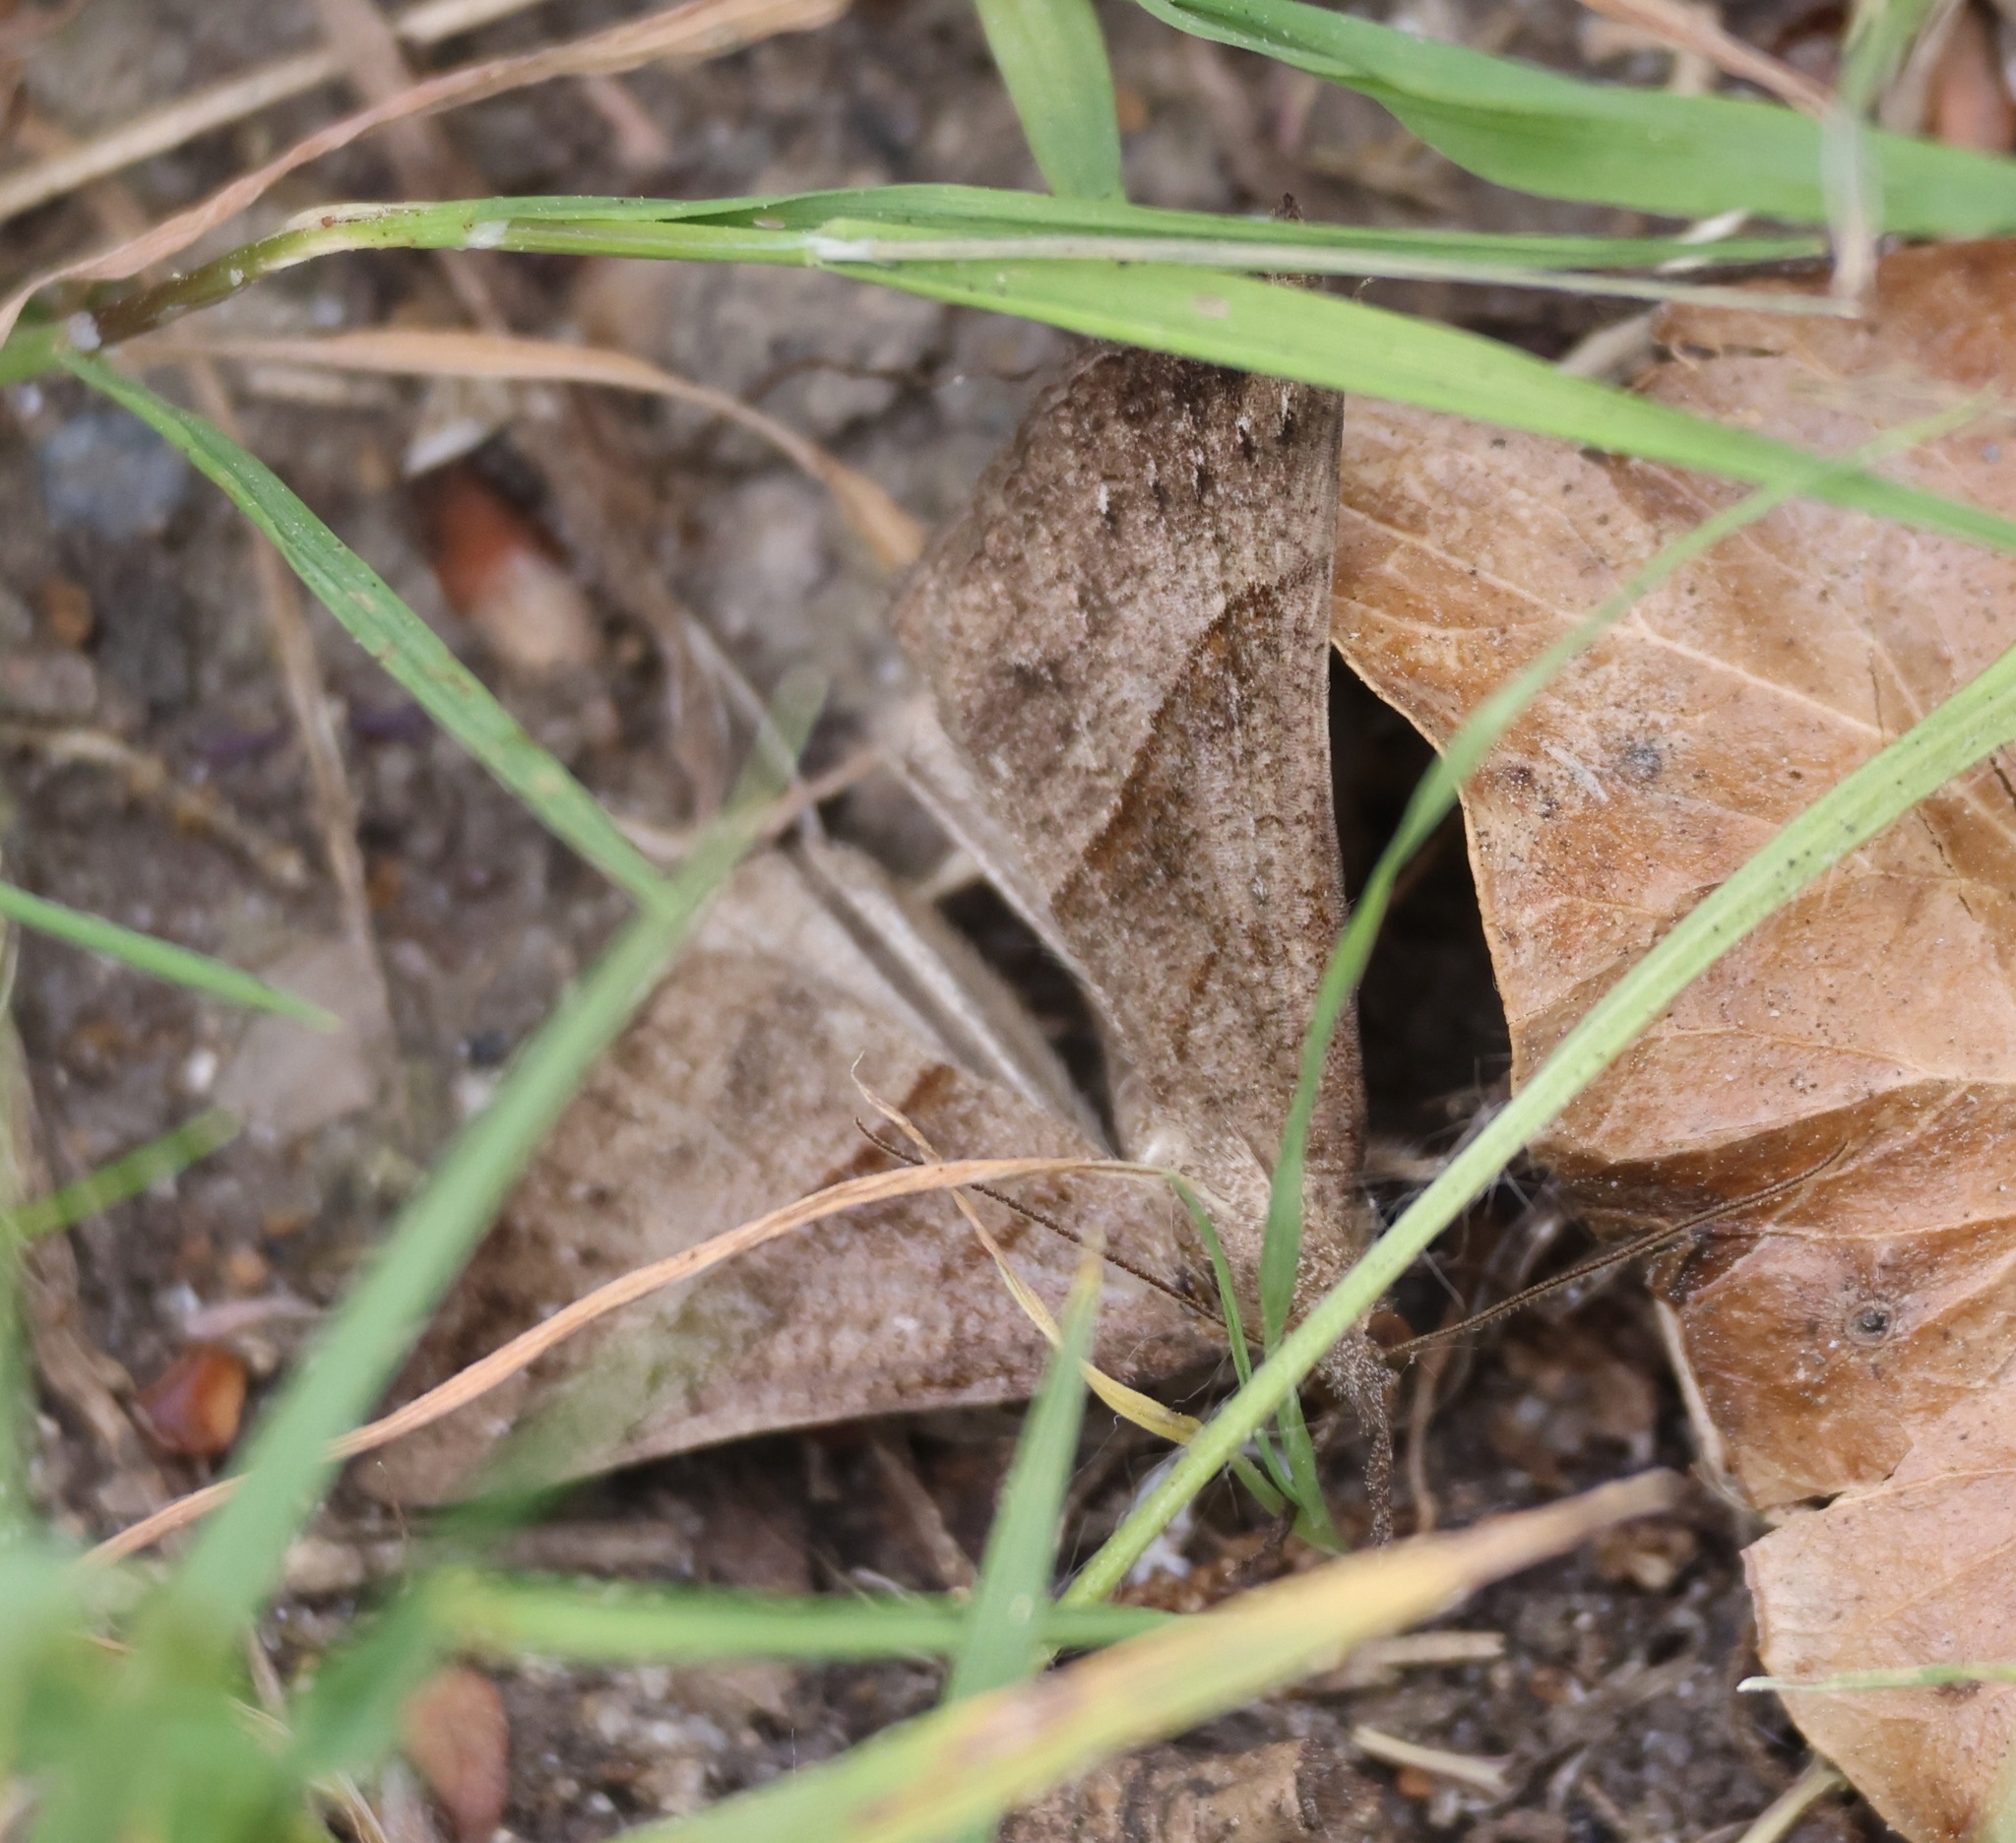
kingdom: Animalia
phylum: Arthropoda
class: Insecta
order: Lepidoptera
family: Erebidae
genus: Hypena
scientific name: Hypena proboscidalis
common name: Snout
